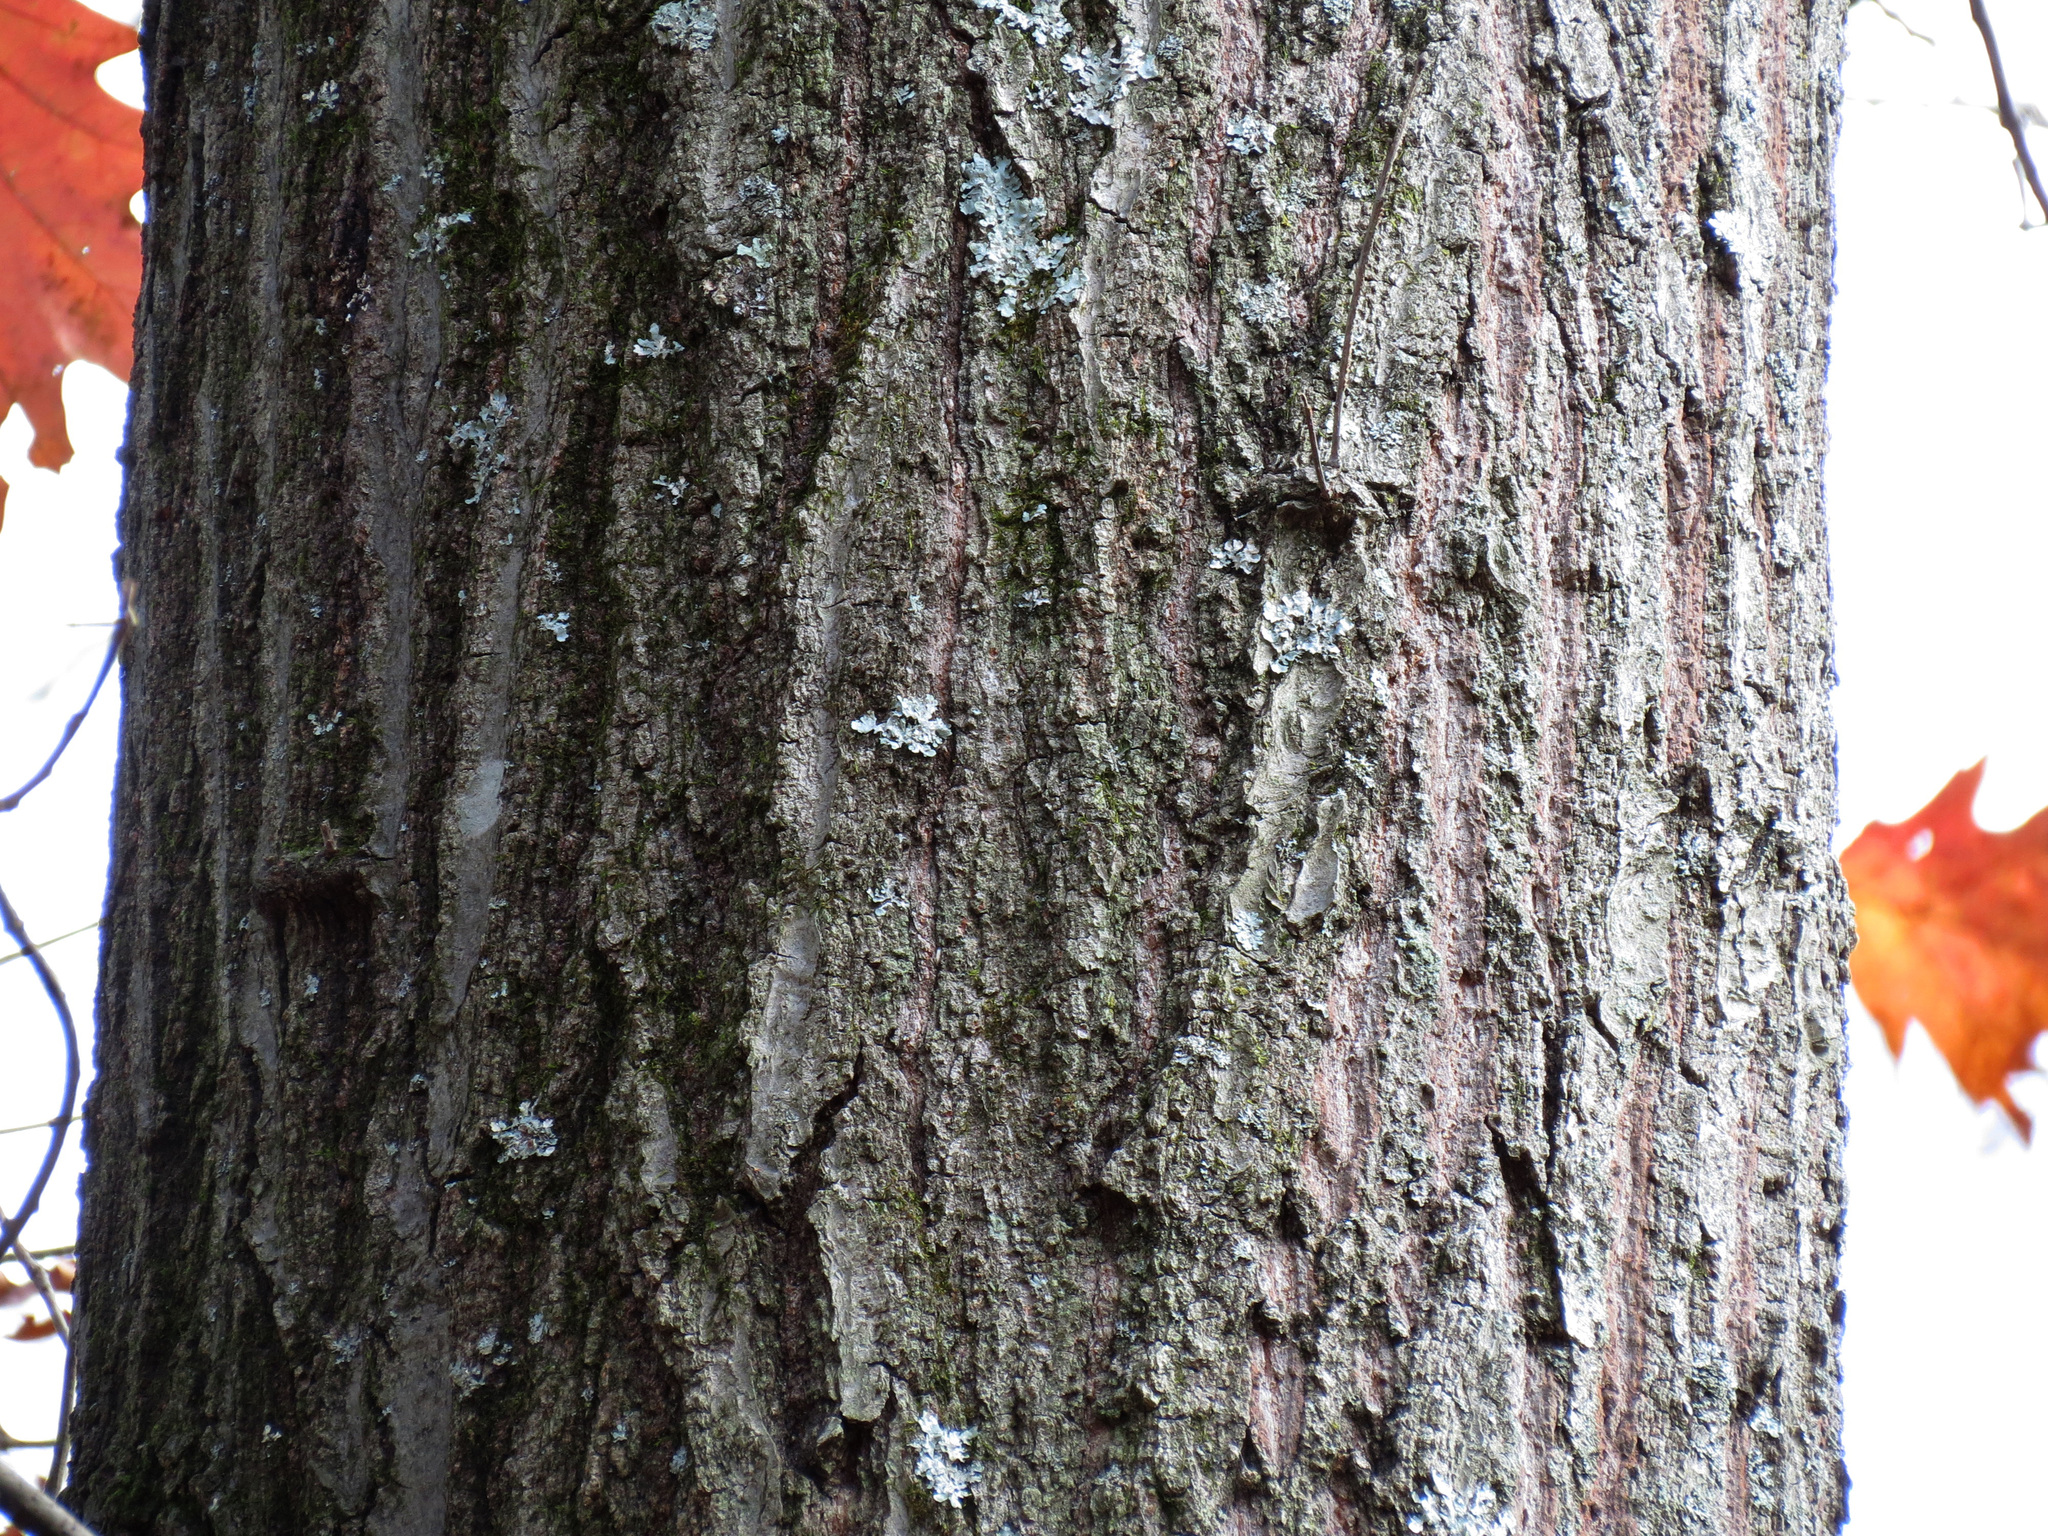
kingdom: Plantae
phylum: Tracheophyta
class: Magnoliopsida
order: Fagales
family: Fagaceae
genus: Quercus
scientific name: Quercus rubra
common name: Red oak
